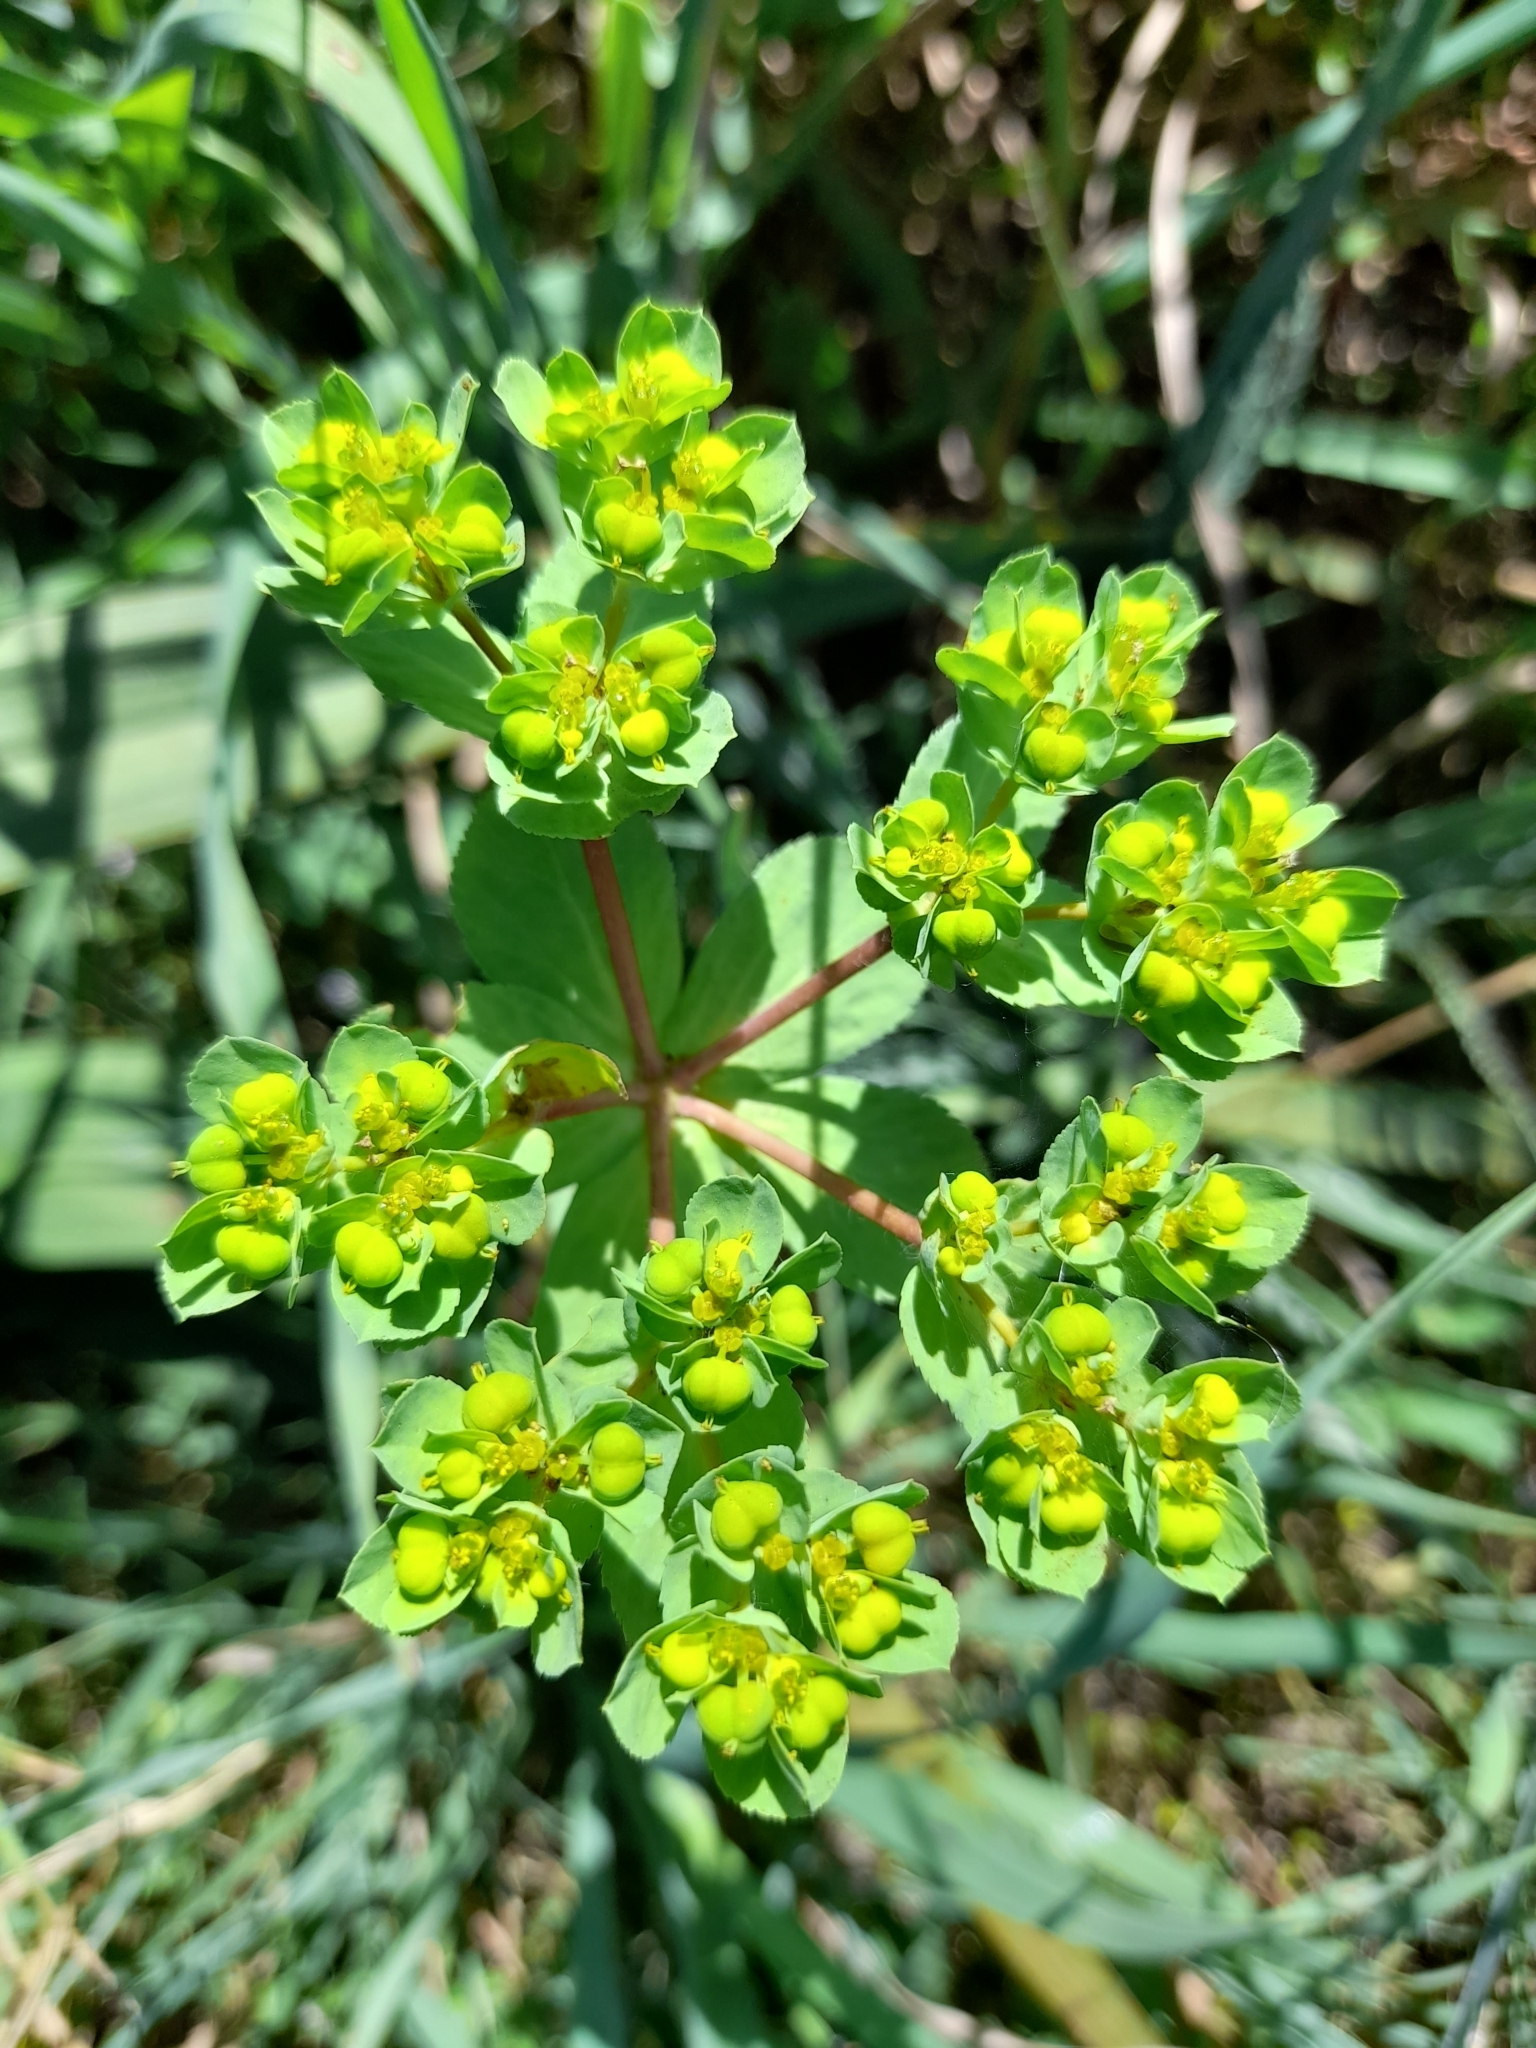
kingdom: Plantae
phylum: Tracheophyta
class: Magnoliopsida
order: Malpighiales
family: Euphorbiaceae
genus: Euphorbia
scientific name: Euphorbia helioscopia
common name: Sun spurge
